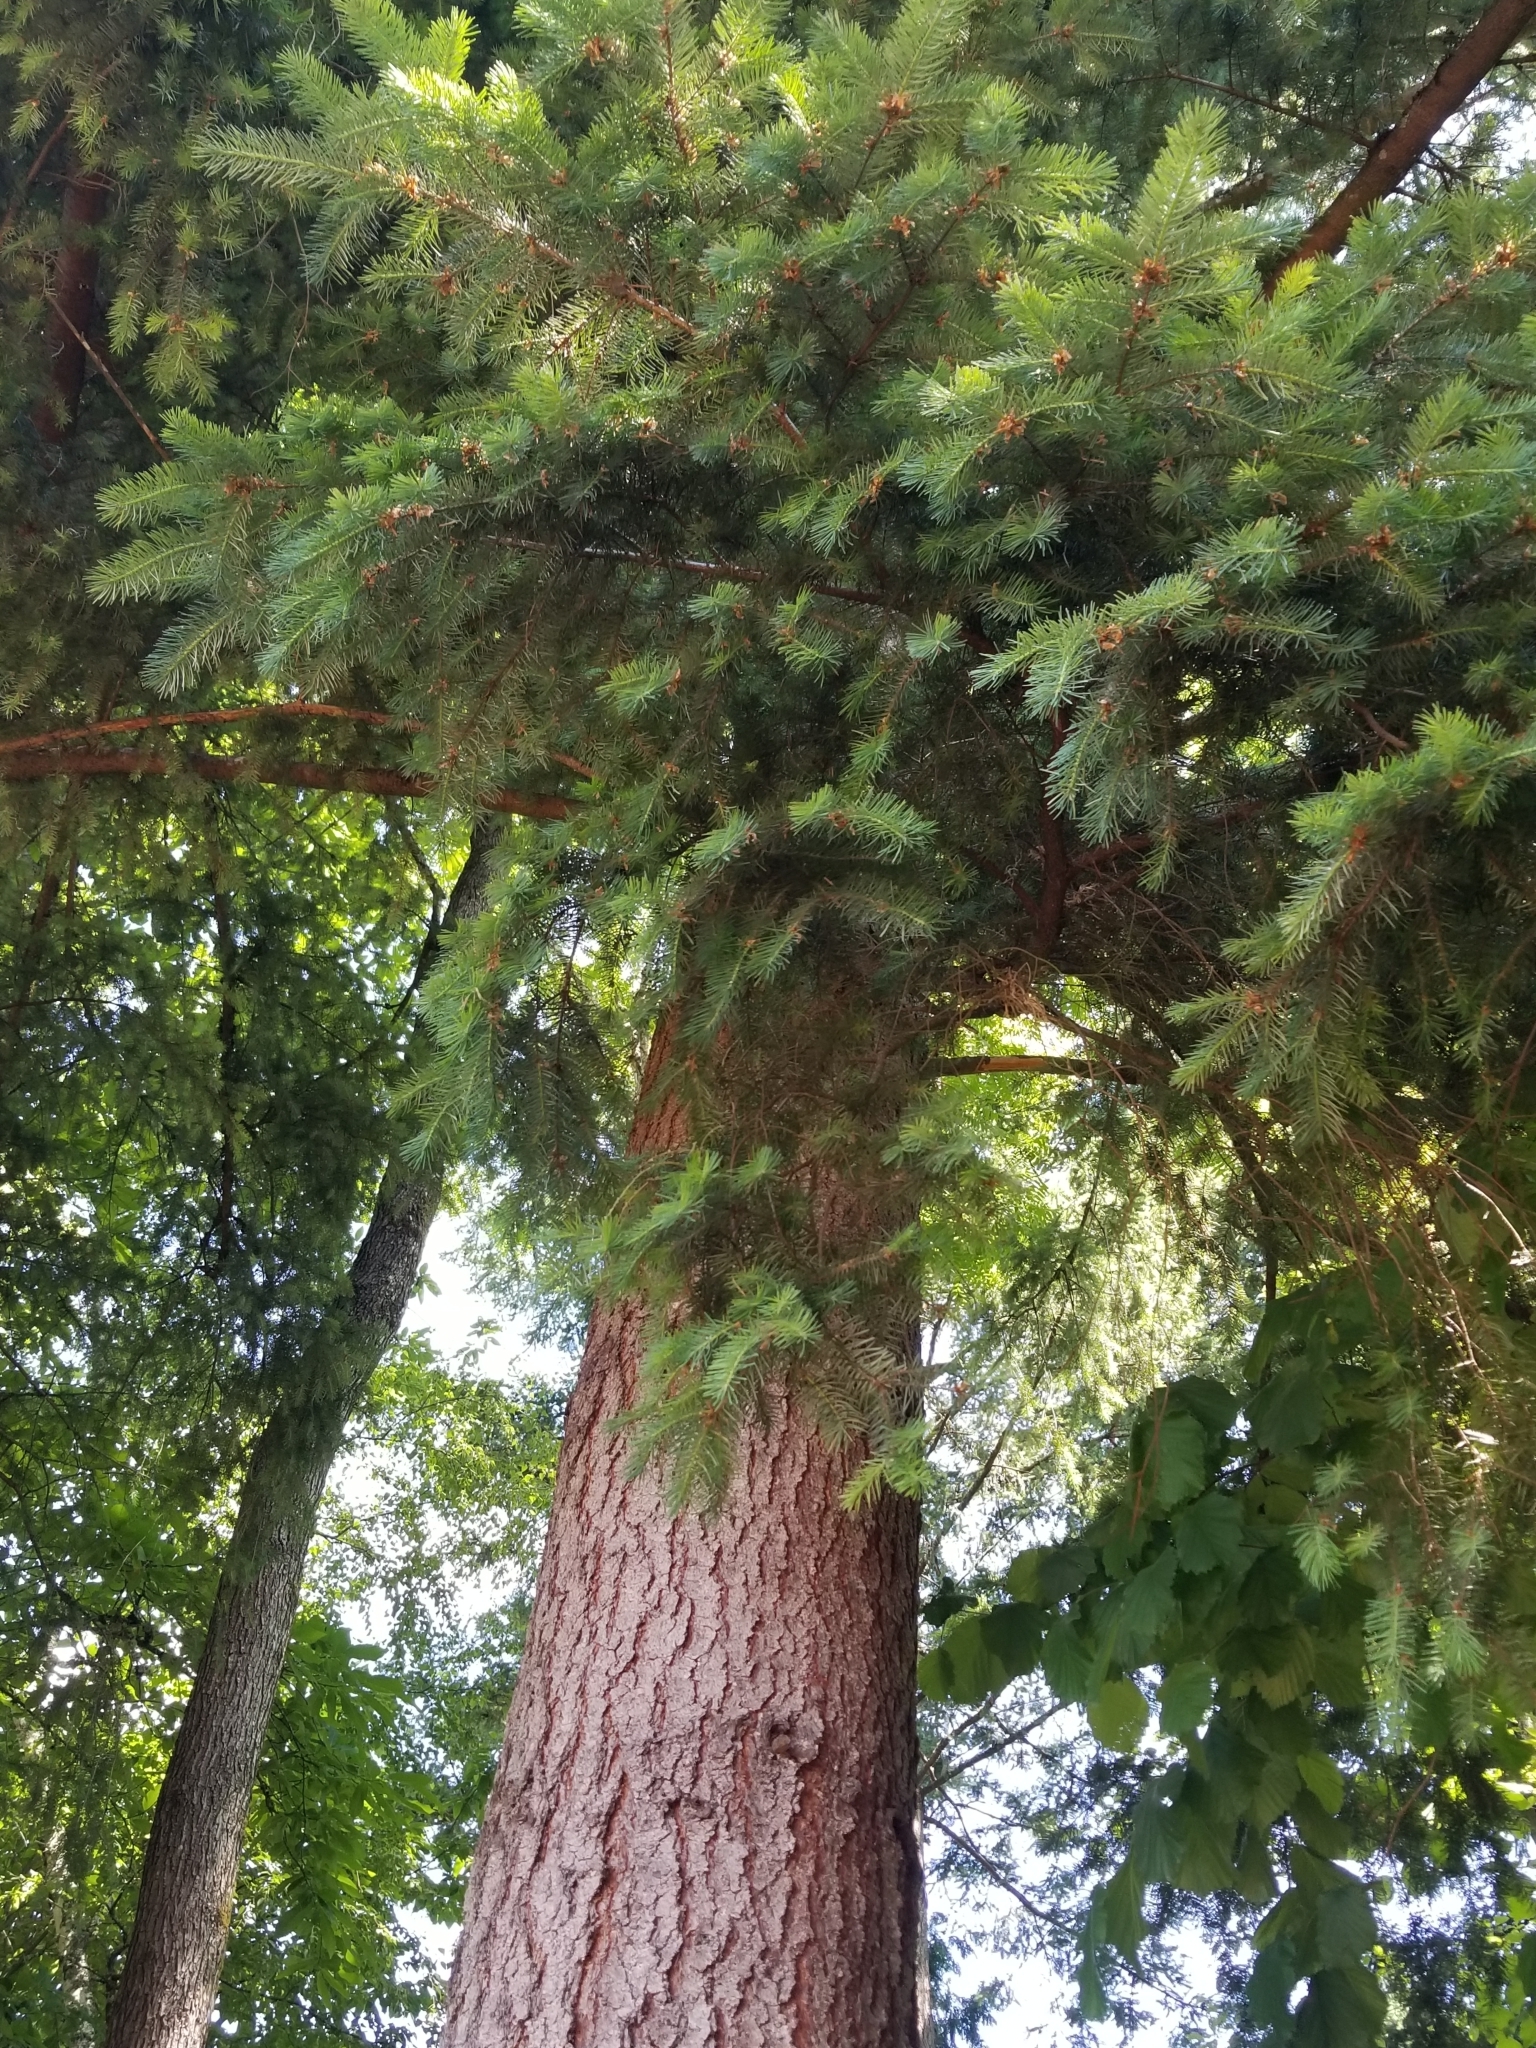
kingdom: Plantae
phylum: Tracheophyta
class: Pinopsida
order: Pinales
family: Pinaceae
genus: Pseudotsuga
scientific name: Pseudotsuga menziesii
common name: Douglas fir
